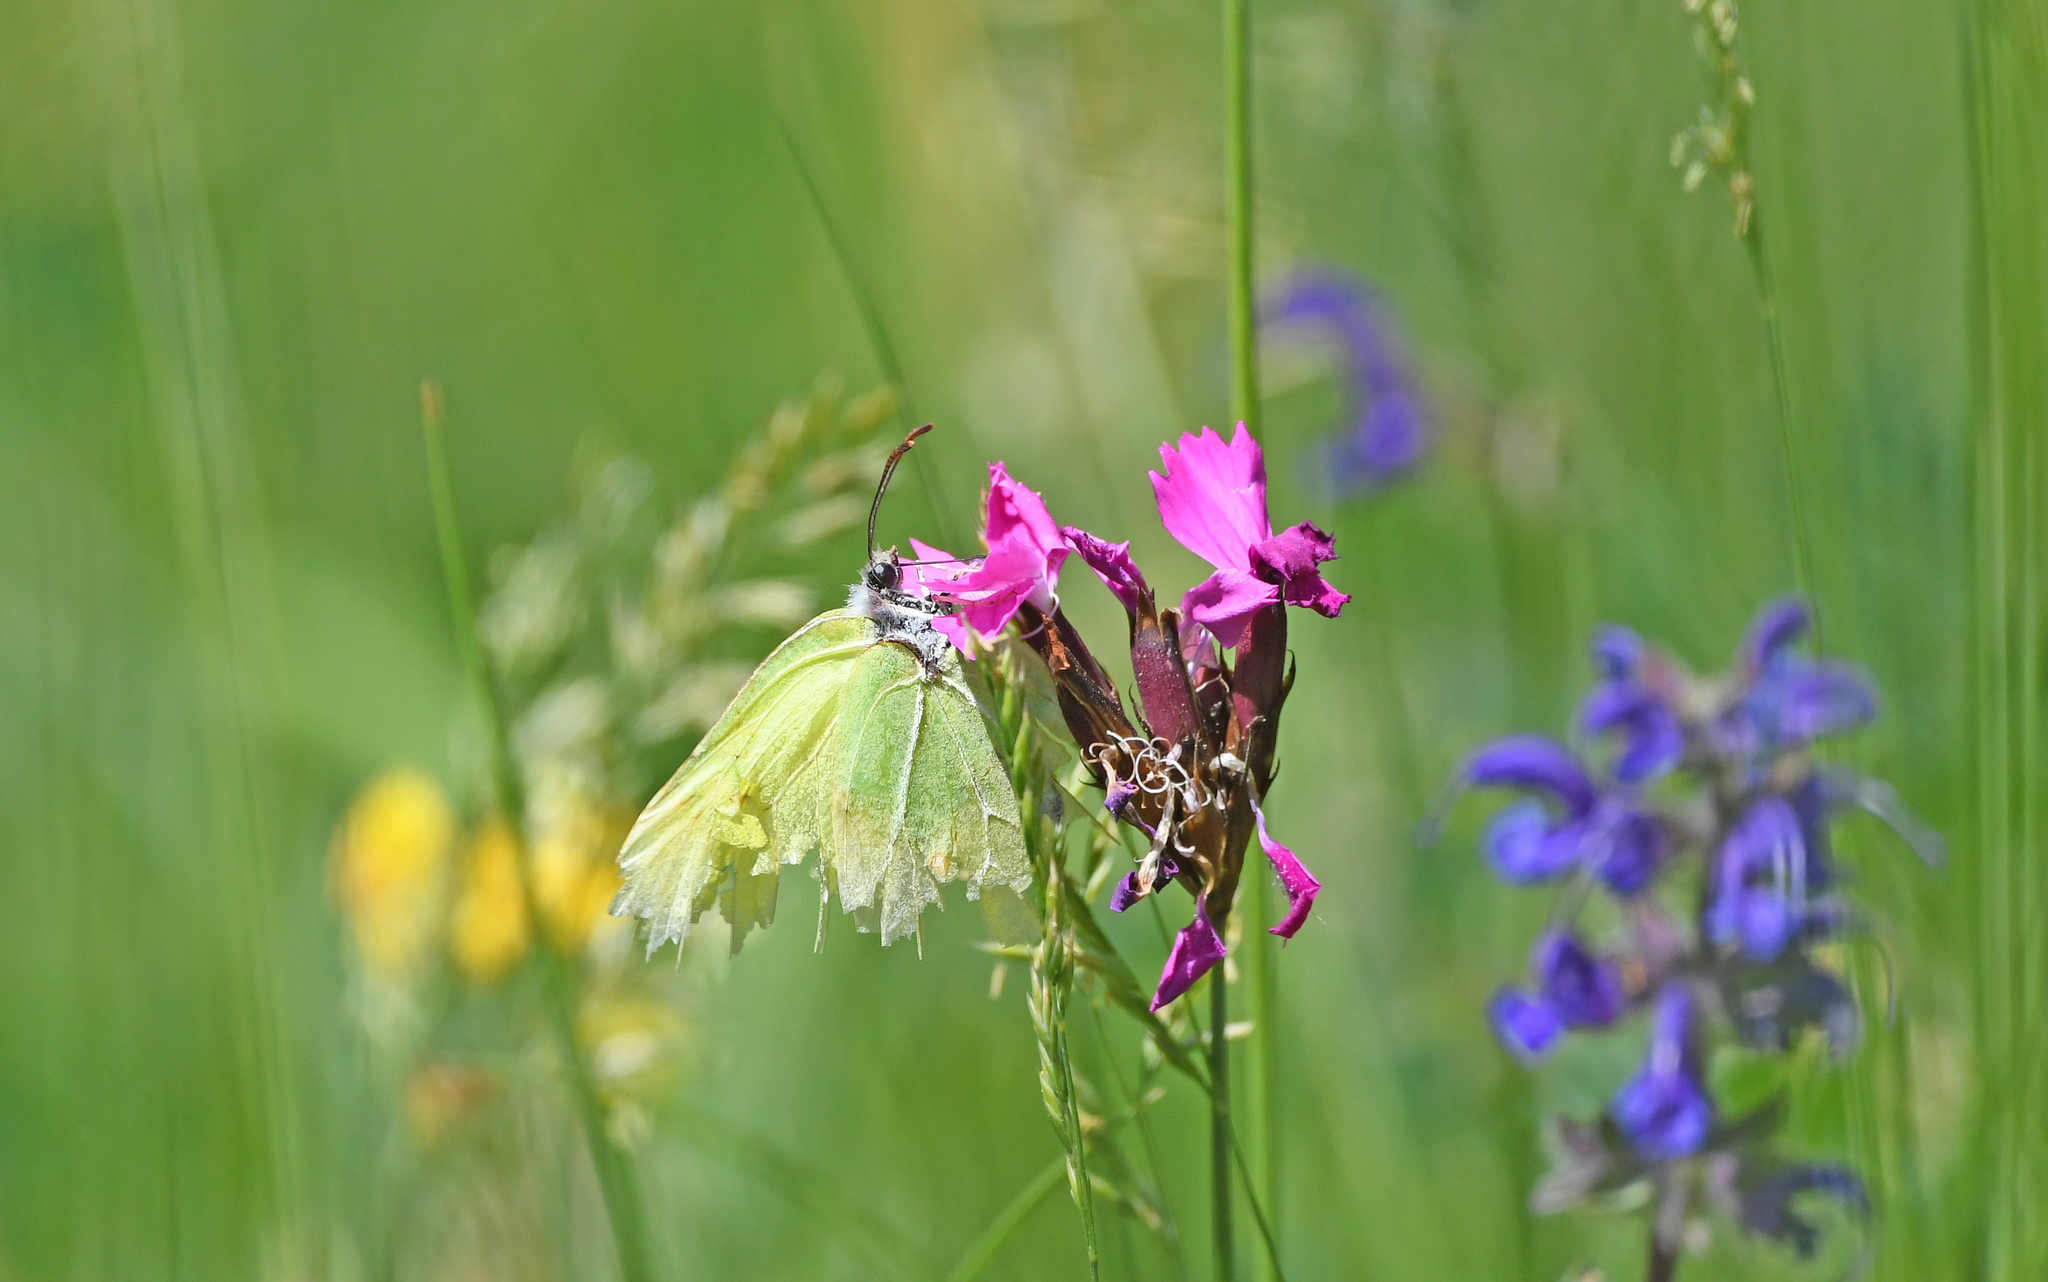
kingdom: Animalia
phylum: Arthropoda
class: Insecta
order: Lepidoptera
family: Pieridae
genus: Gonepteryx
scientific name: Gonepteryx rhamni
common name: Brimstone
